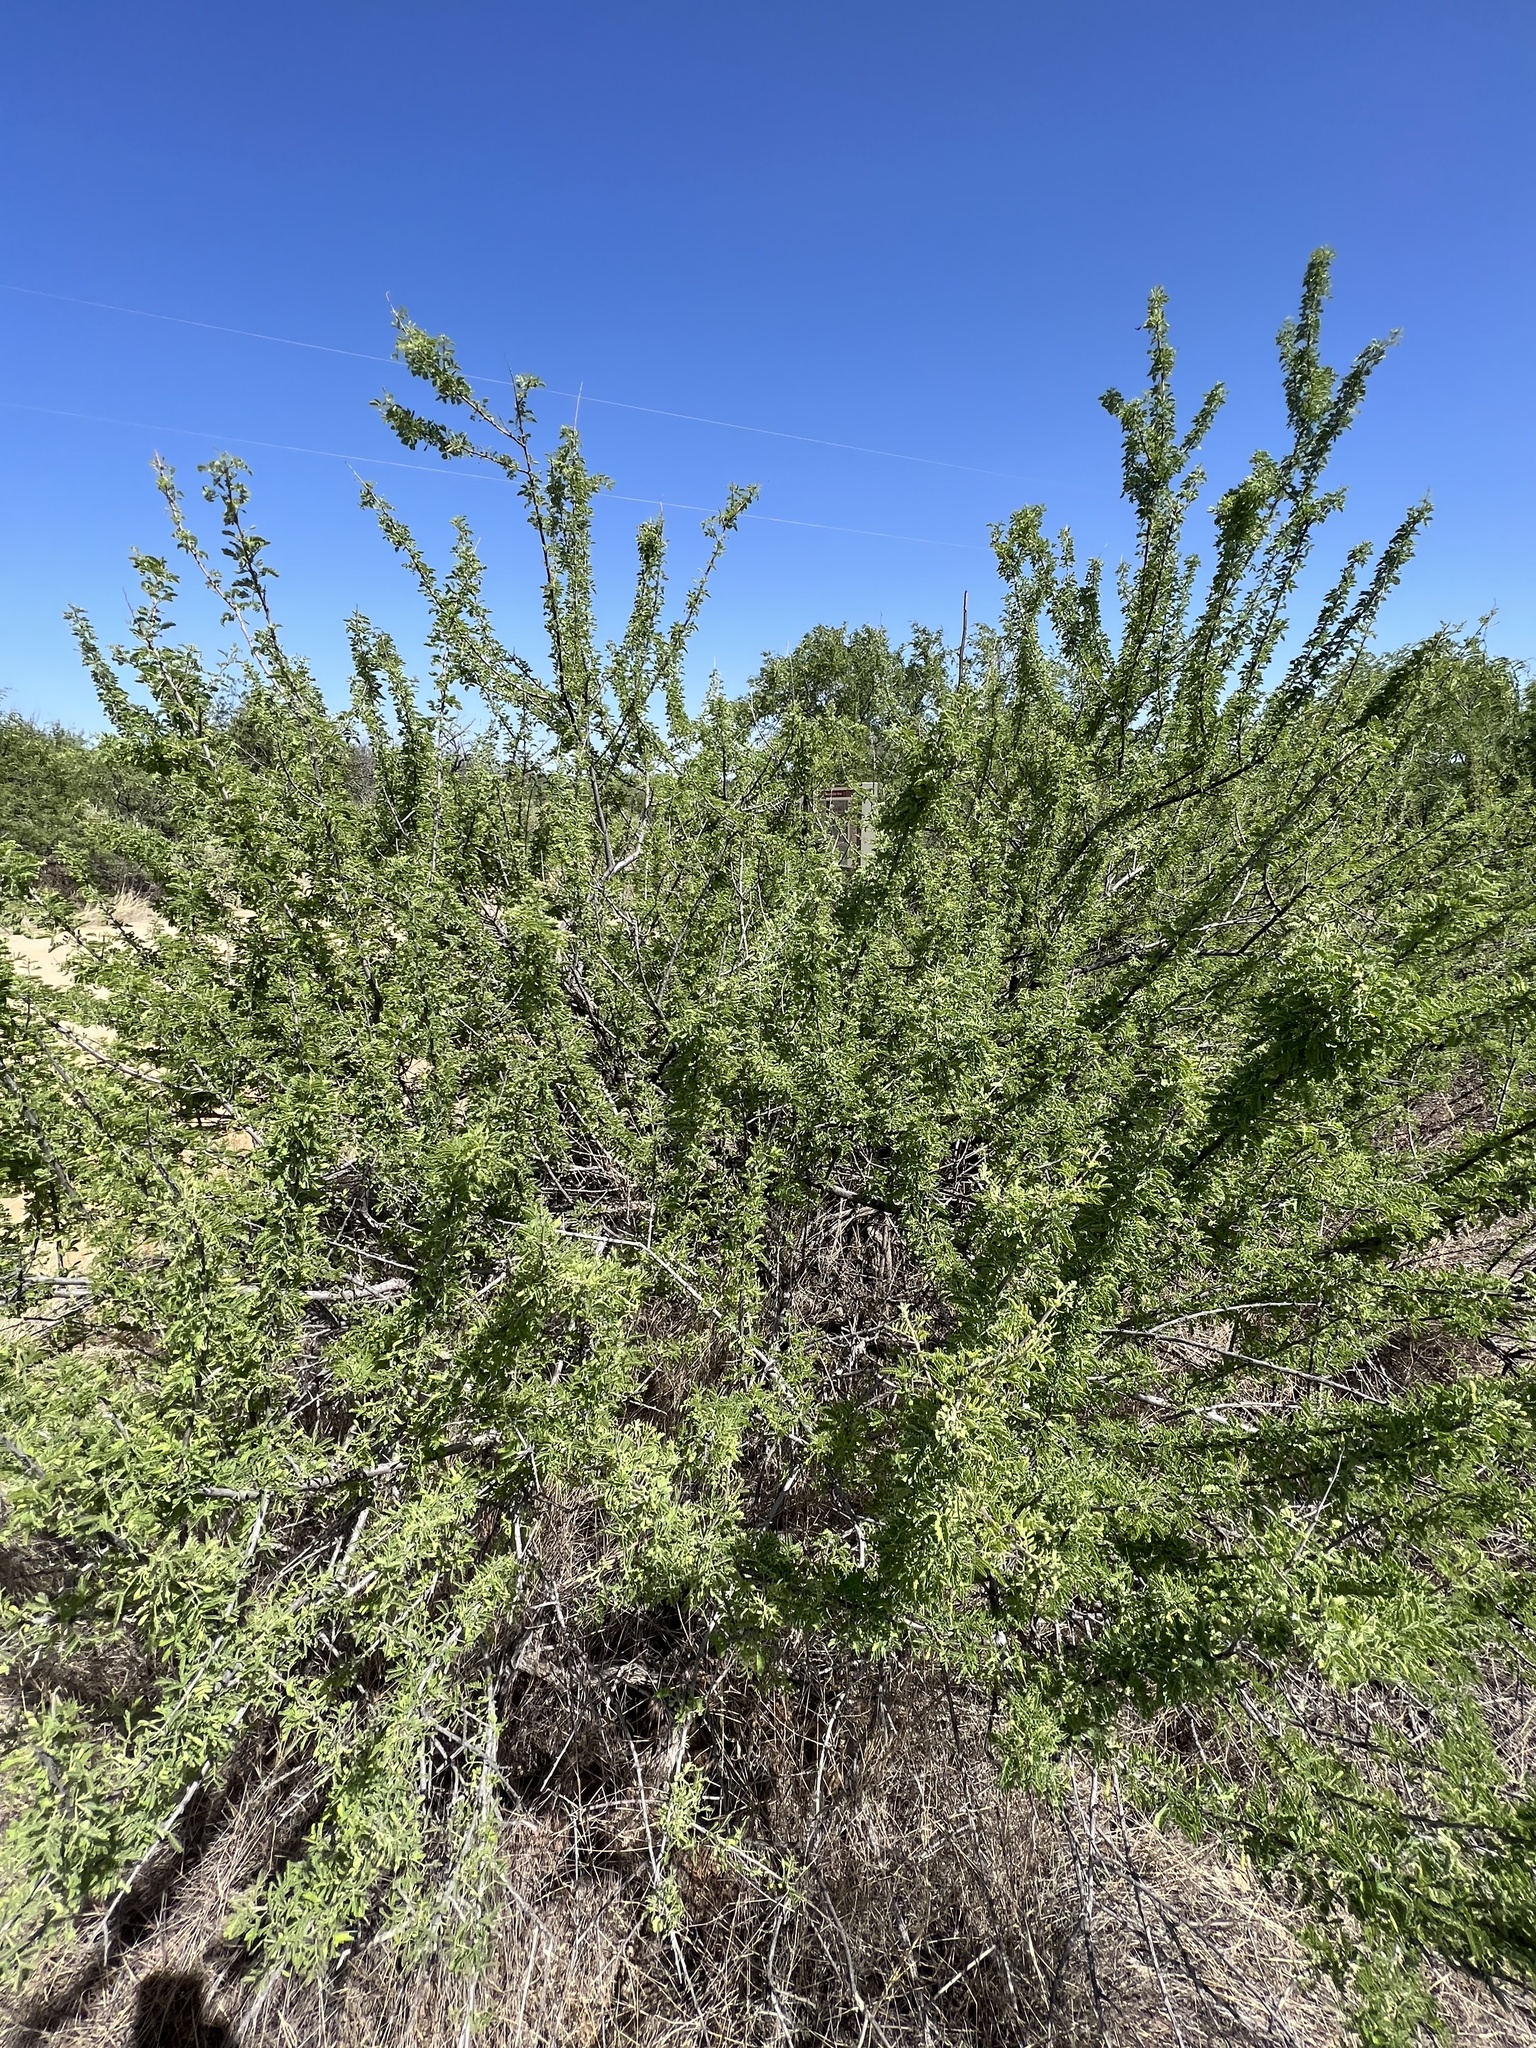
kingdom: Plantae
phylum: Tracheophyta
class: Magnoliopsida
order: Fabales
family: Fabaceae
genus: Senegalia
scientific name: Senegalia greggii
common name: Texas-mimosa
